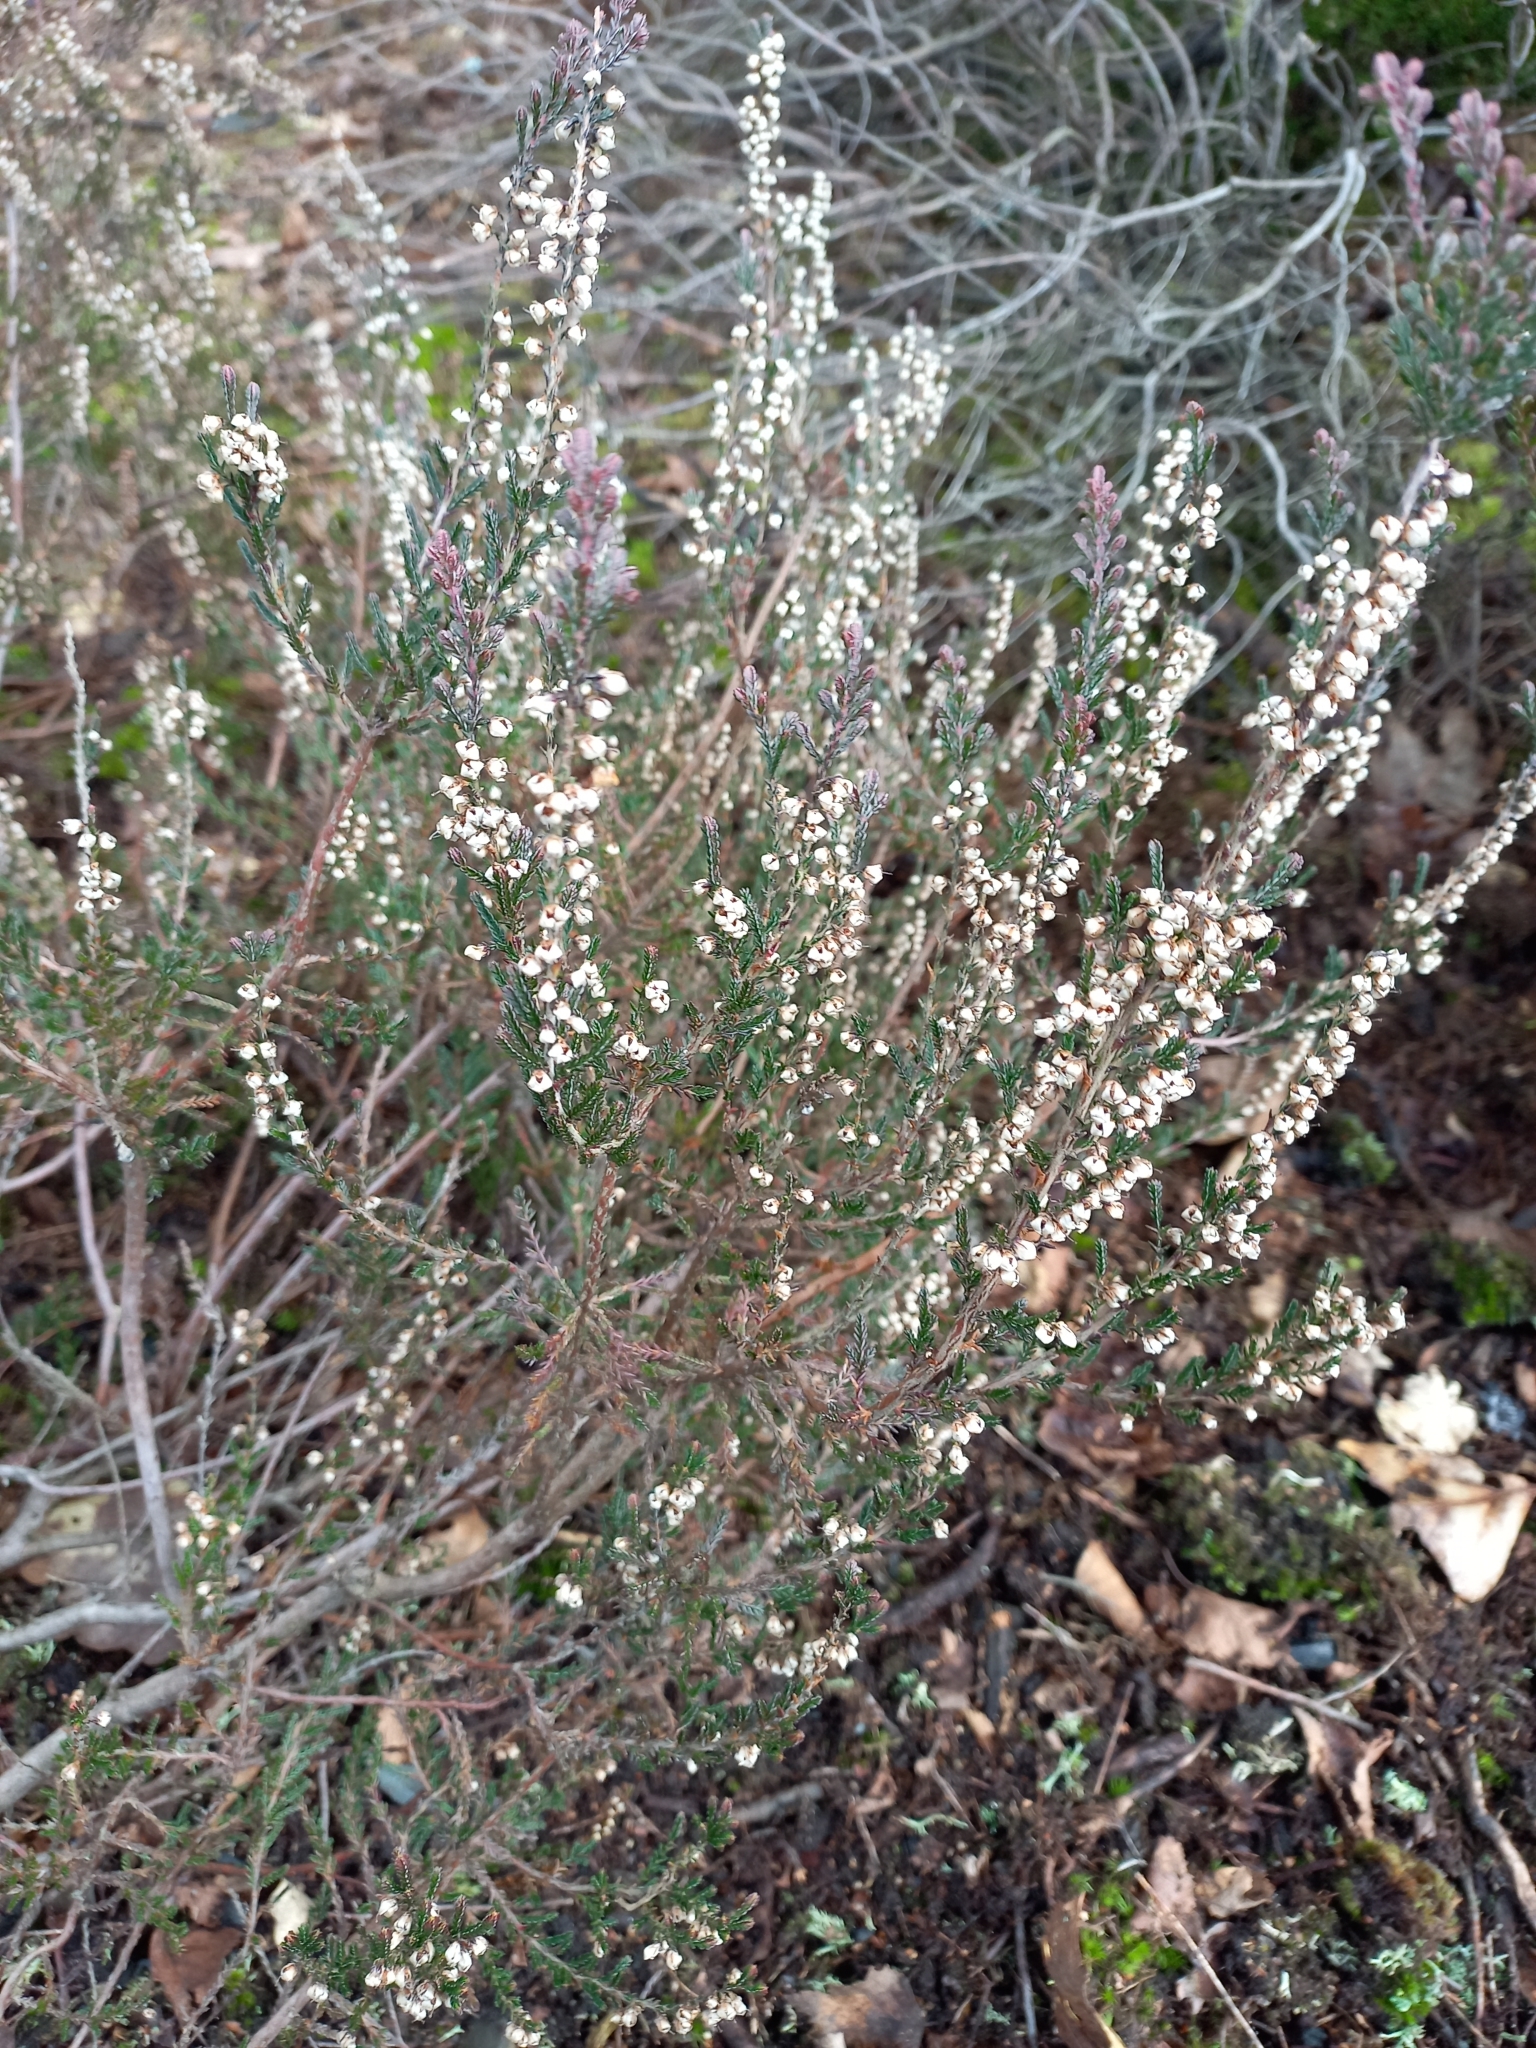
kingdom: Plantae
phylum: Tracheophyta
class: Magnoliopsida
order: Ericales
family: Ericaceae
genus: Calluna
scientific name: Calluna vulgaris
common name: Heather
